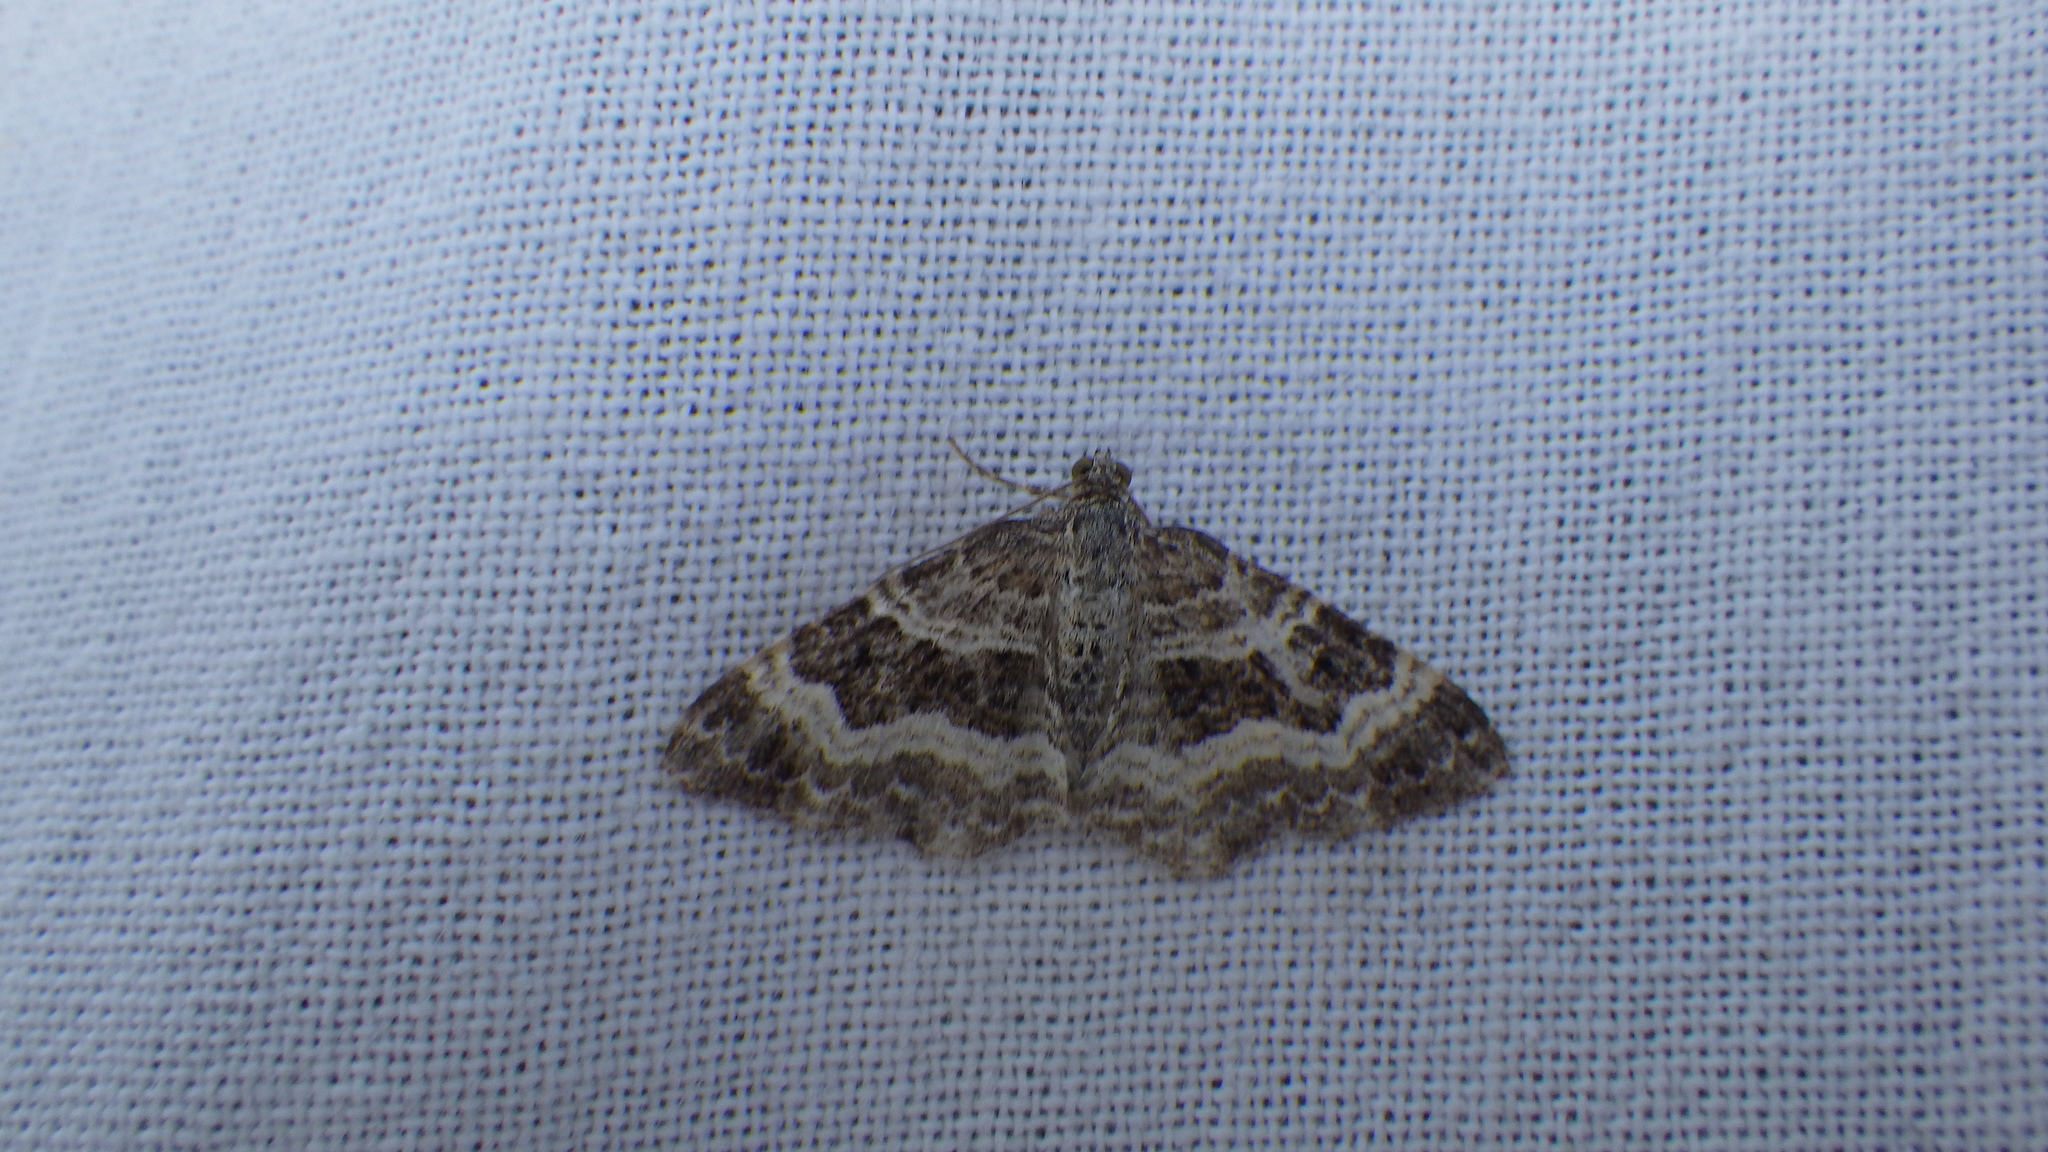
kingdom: Animalia
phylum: Arthropoda
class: Insecta
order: Lepidoptera
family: Geometridae
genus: Epirrhoe
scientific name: Epirrhoe alternata
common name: Common carpet
